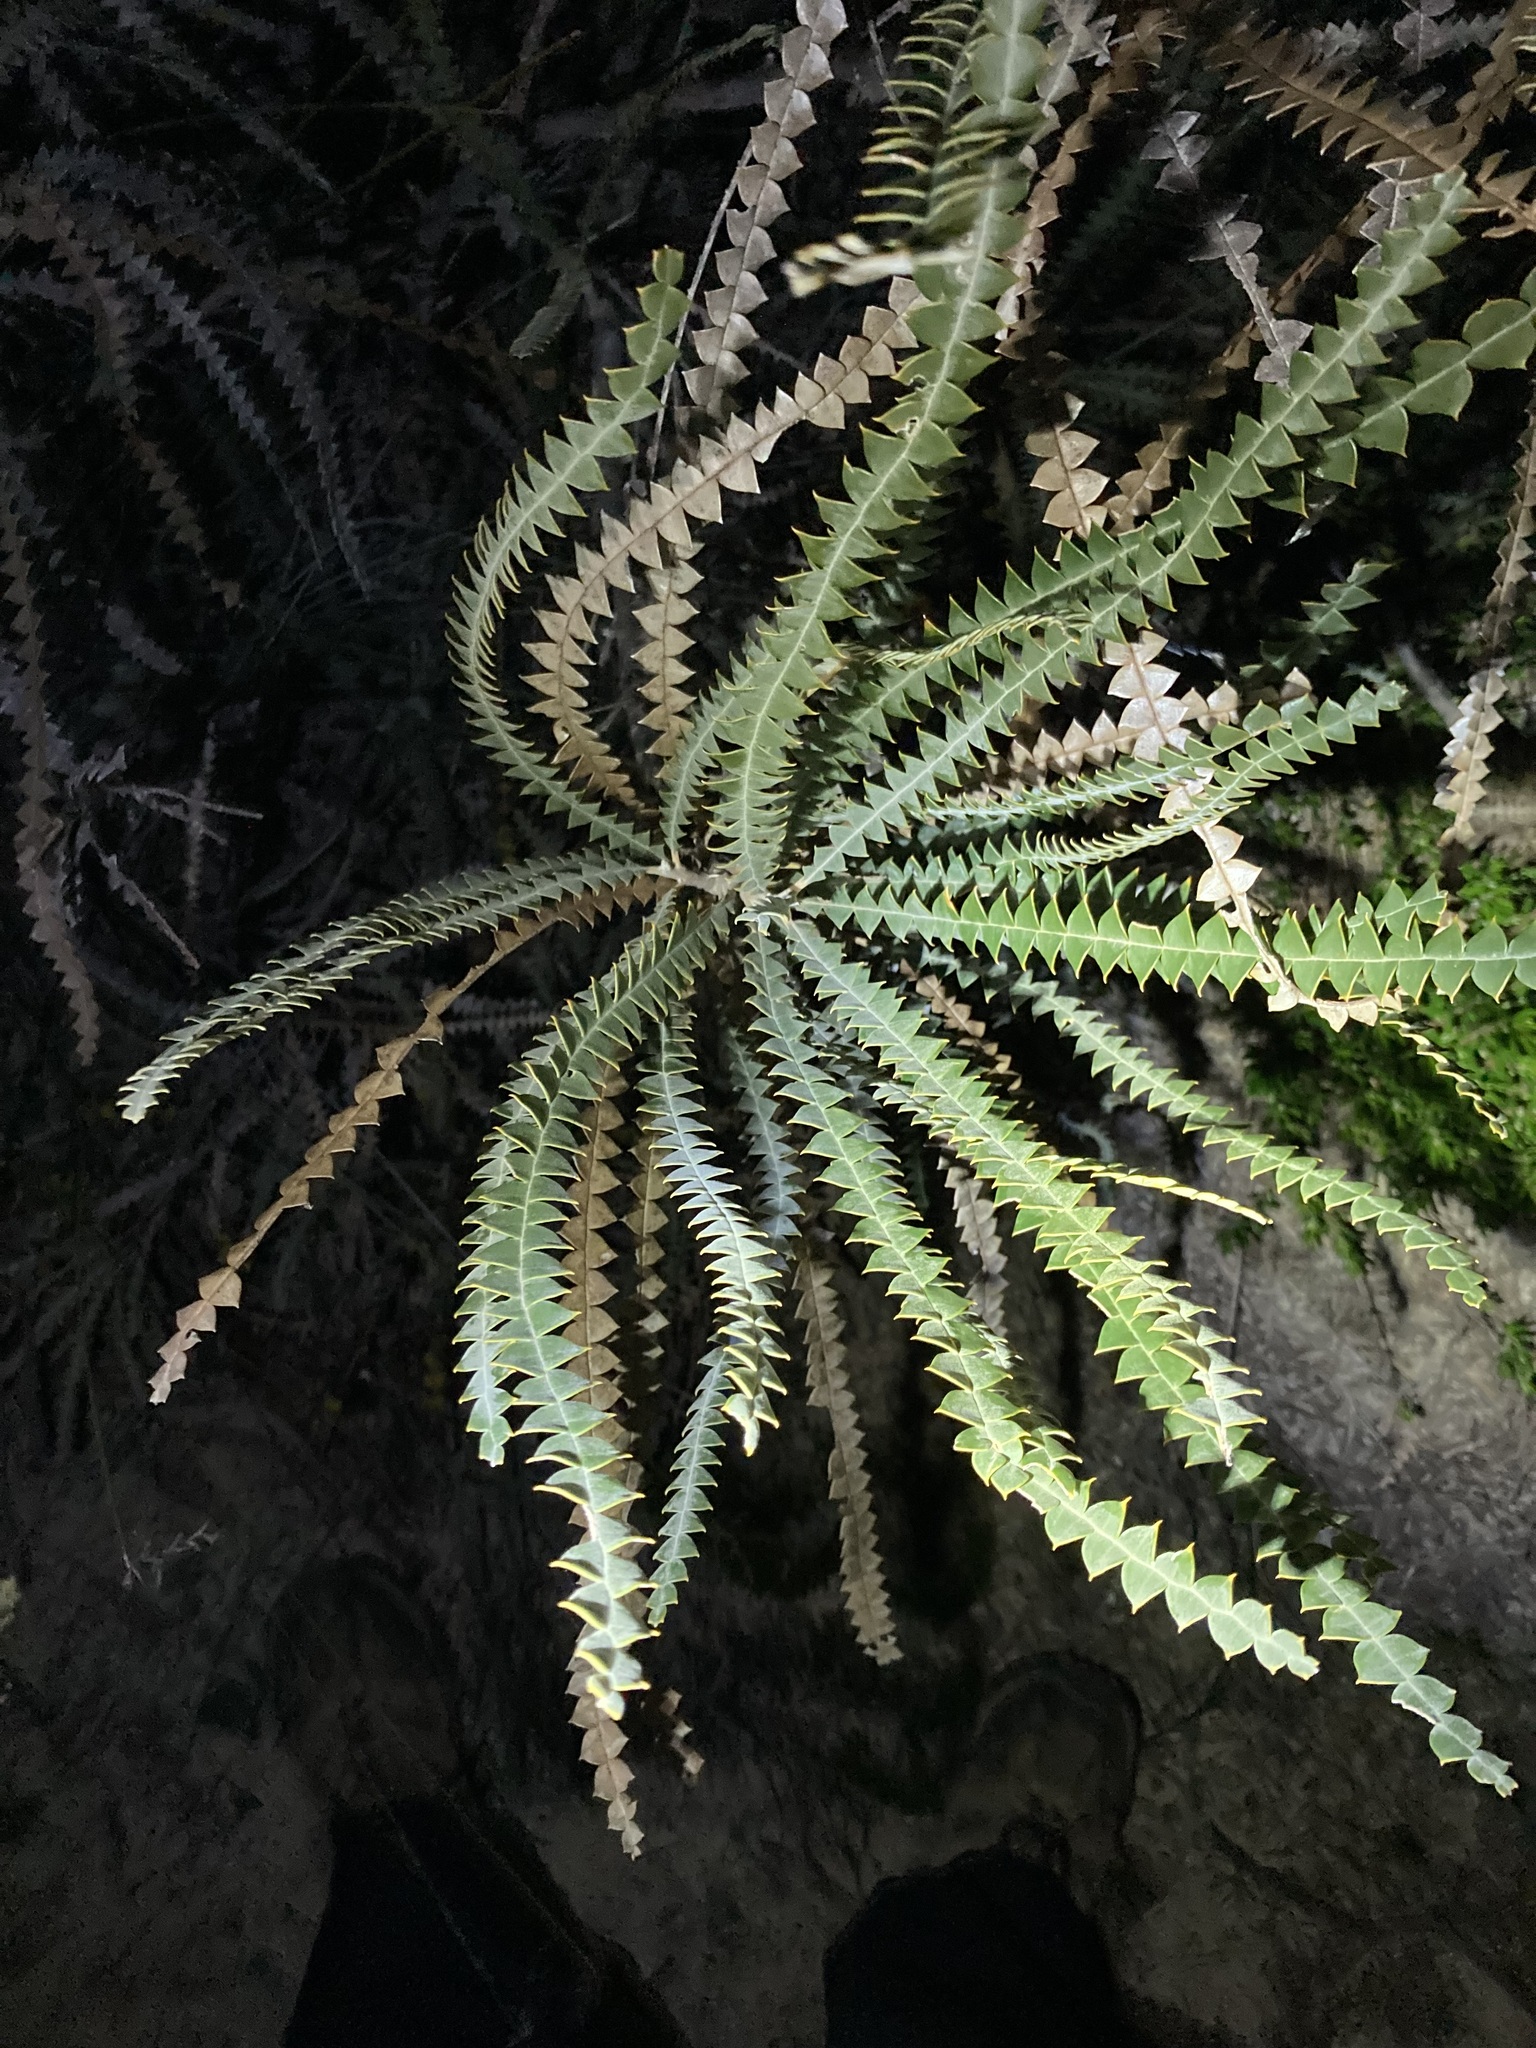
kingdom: Plantae
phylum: Tracheophyta
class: Magnoliopsida
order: Proteales
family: Proteaceae
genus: Banksia
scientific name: Banksia candolleana
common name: Propeller banksia
